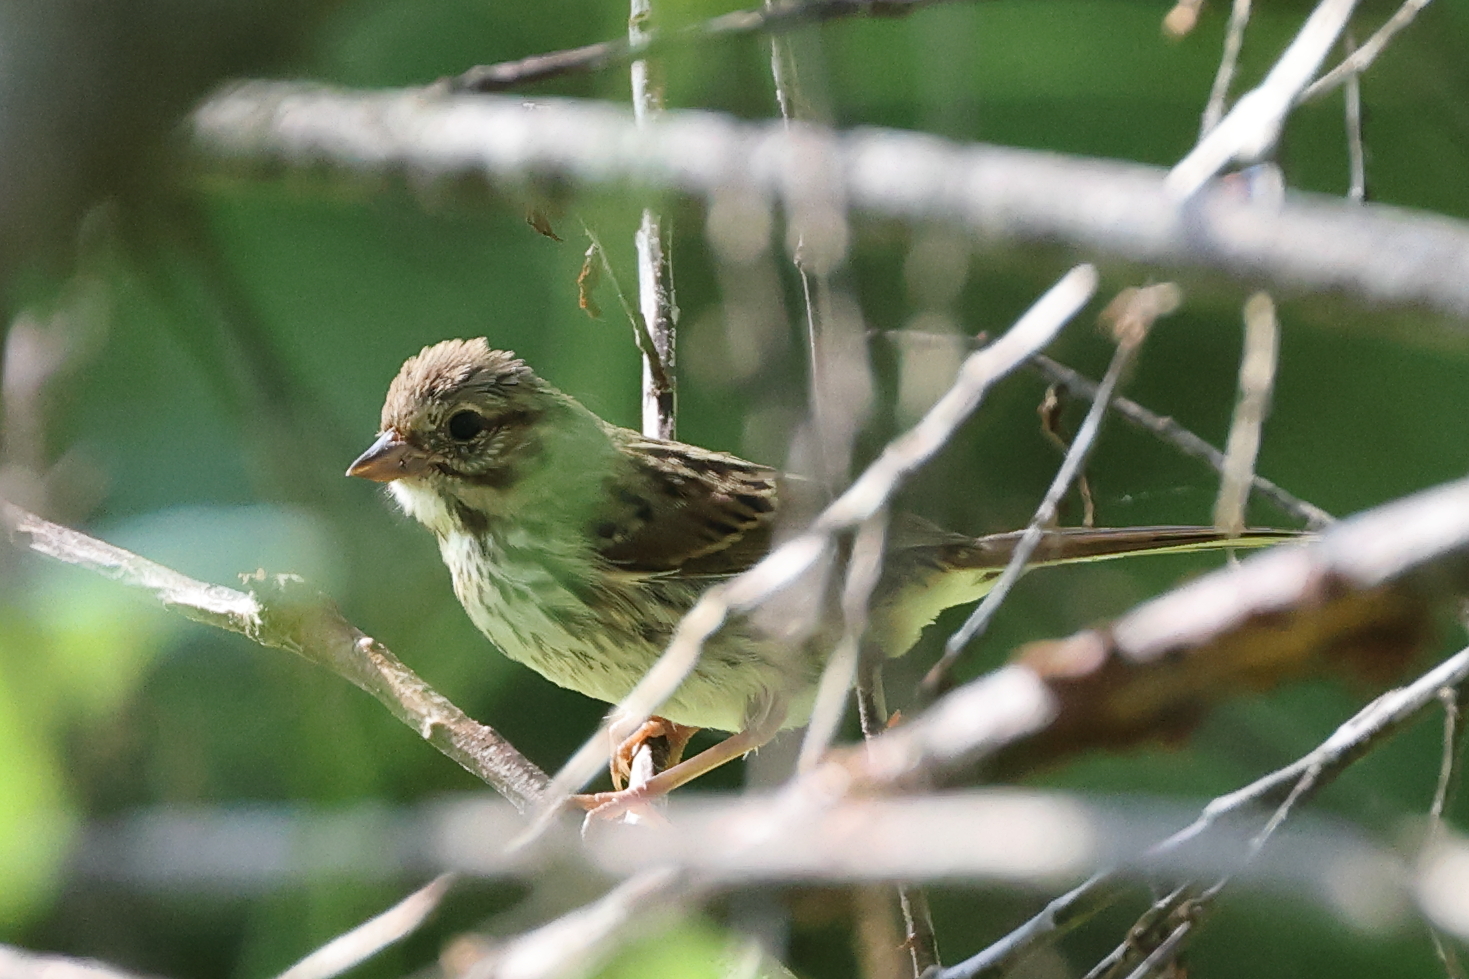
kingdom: Animalia
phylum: Chordata
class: Aves
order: Passeriformes
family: Passerellidae
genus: Melospiza
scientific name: Melospiza melodia
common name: Song sparrow
